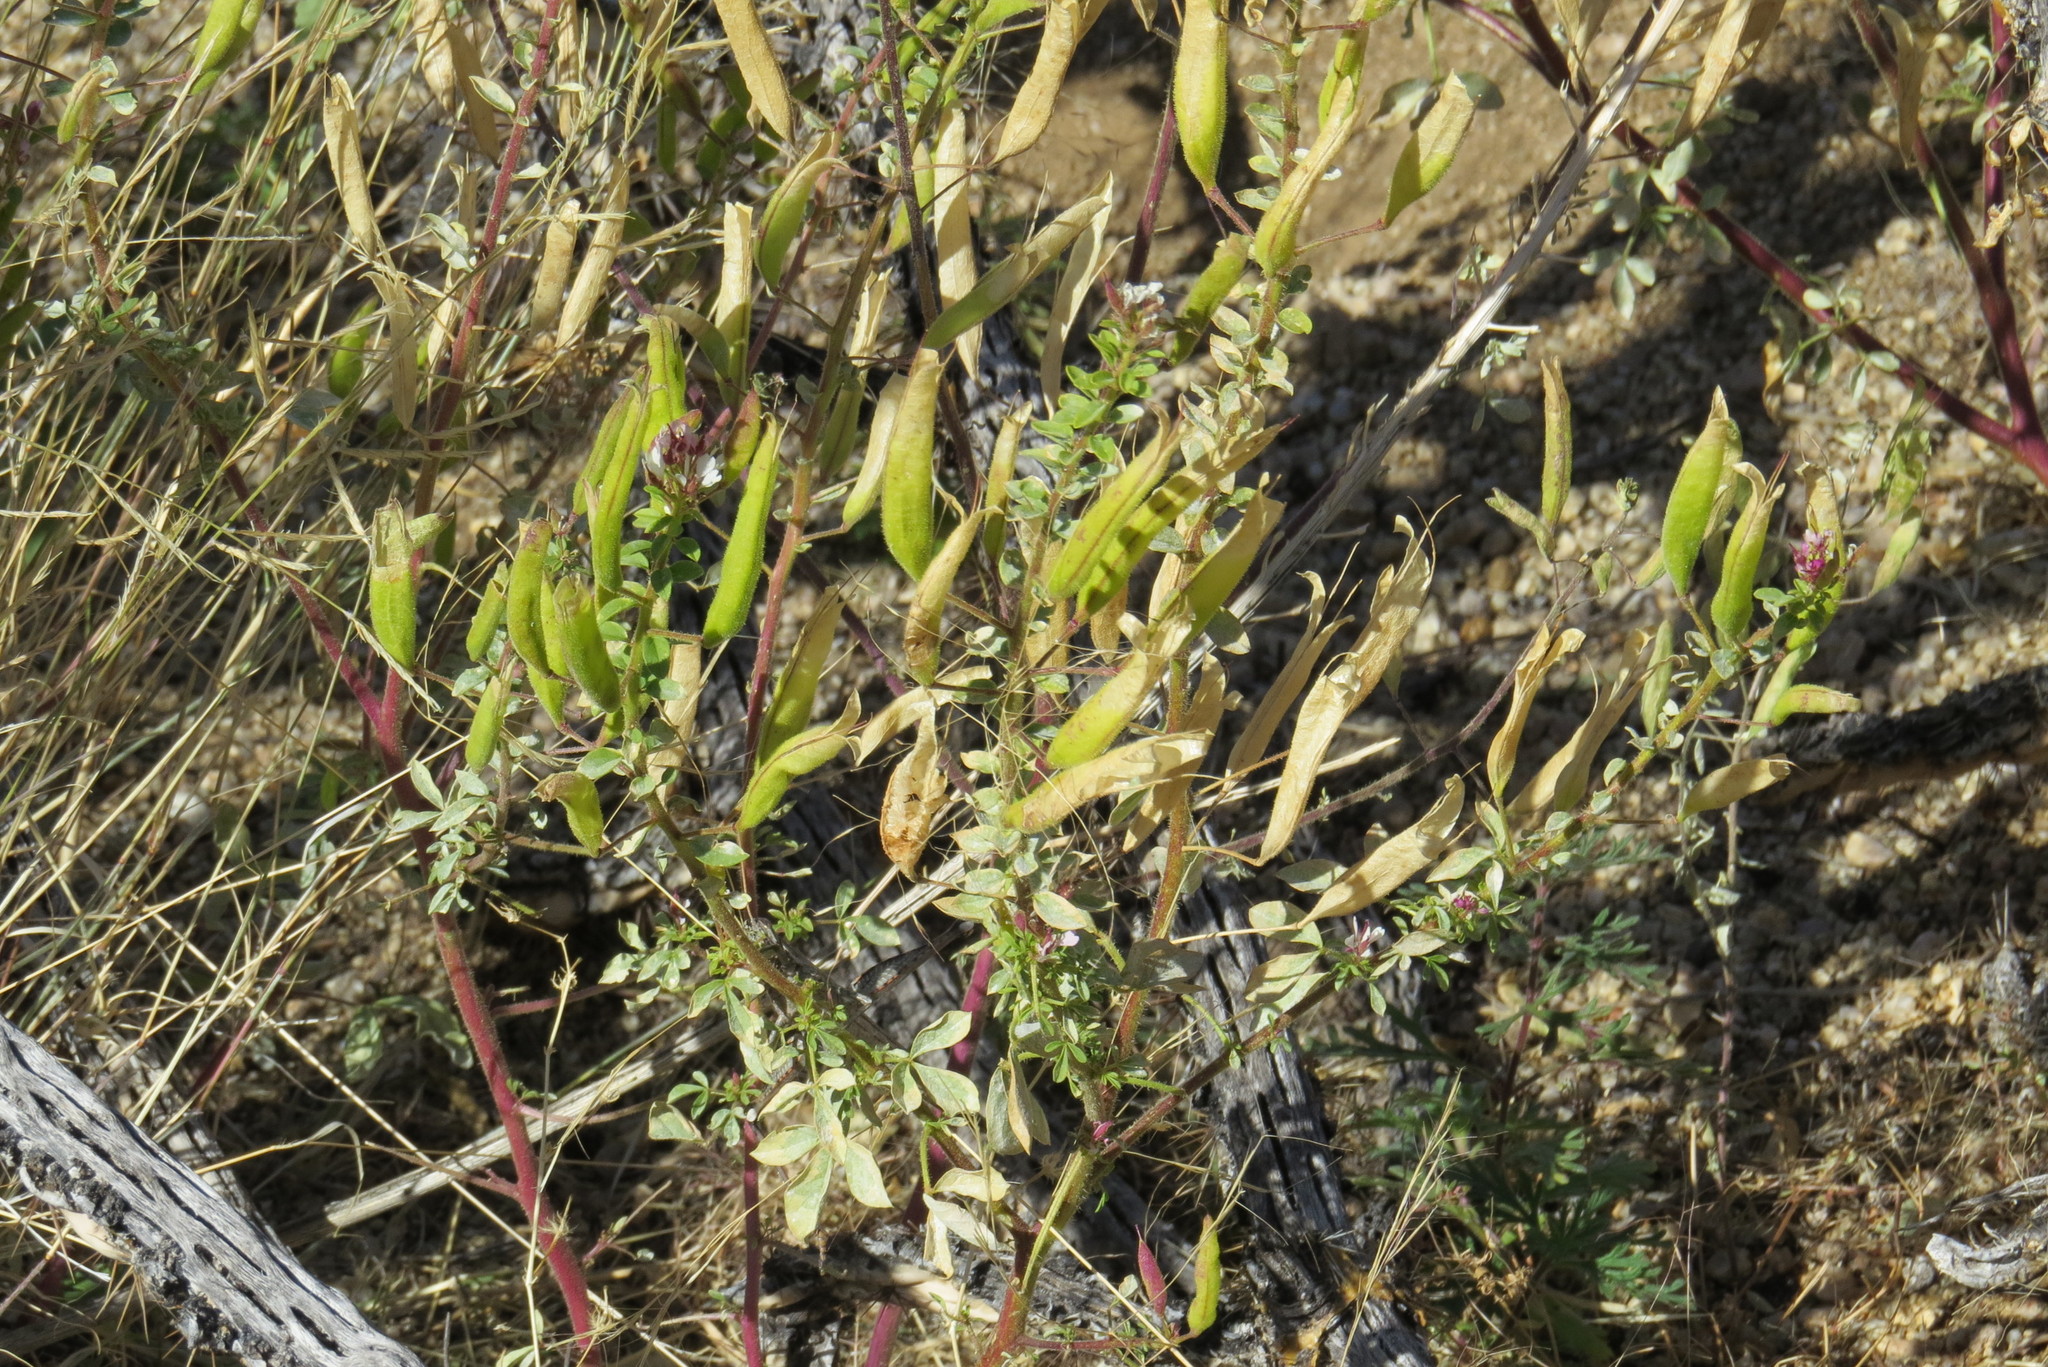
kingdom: Plantae
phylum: Tracheophyta
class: Magnoliopsida
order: Brassicales
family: Cleomaceae
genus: Polanisia
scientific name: Polanisia dodecandra
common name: Clammyweed
